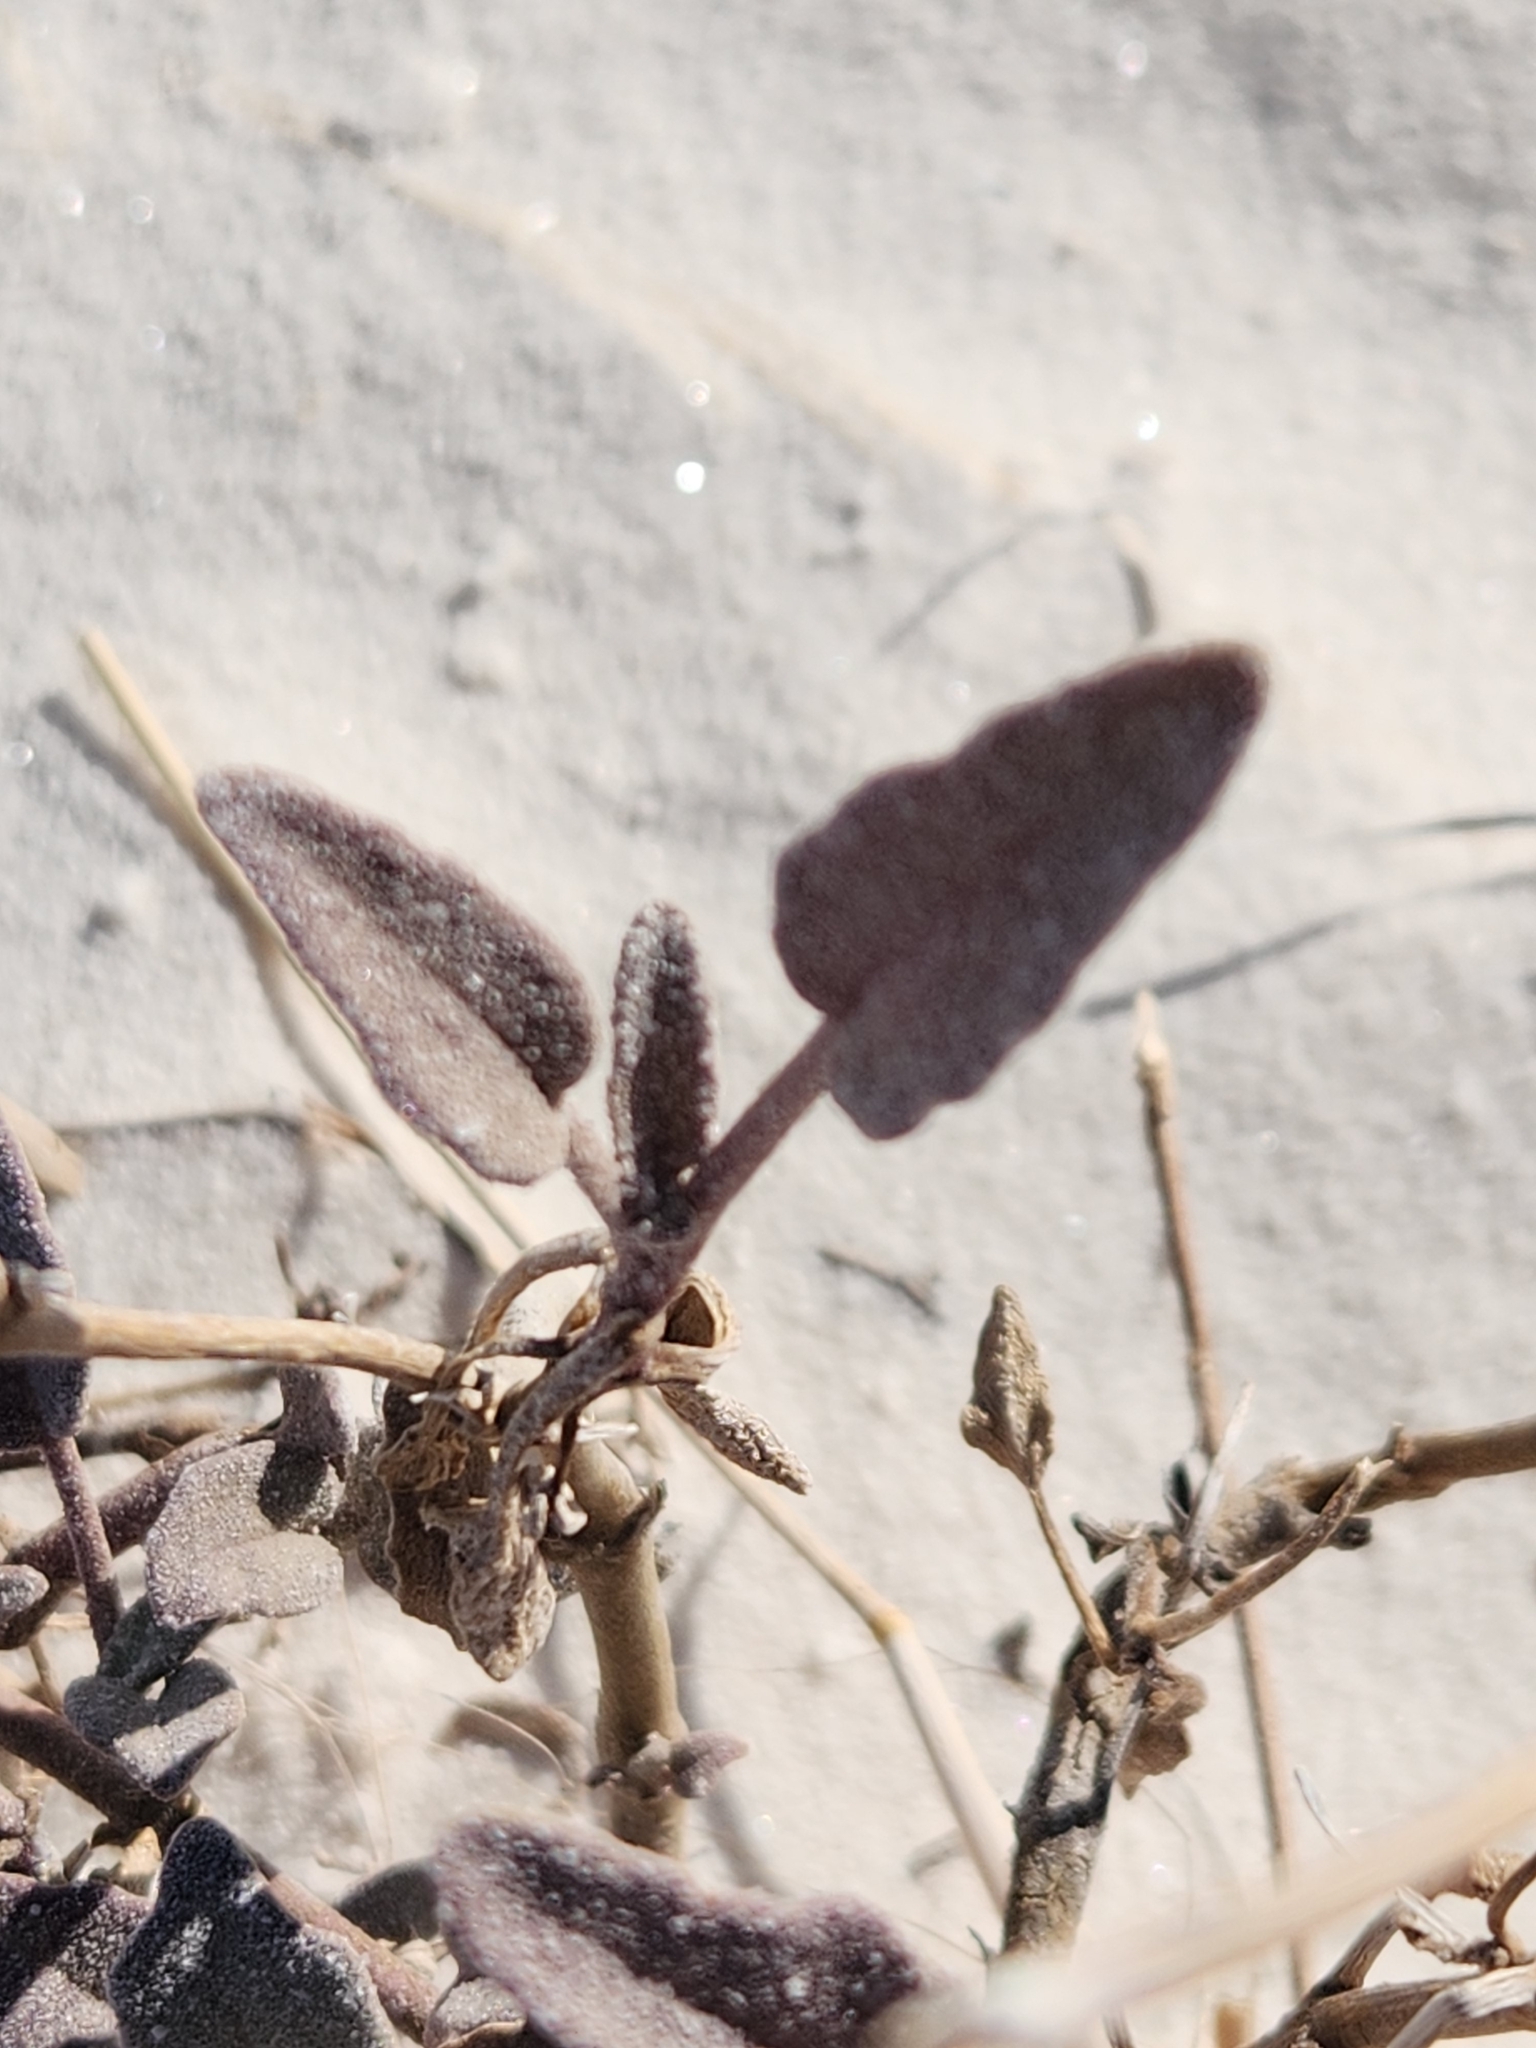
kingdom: Plantae
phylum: Tracheophyta
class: Magnoliopsida
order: Caryophyllales
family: Nyctaginaceae
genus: Abronia
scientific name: Abronia angustifolia
